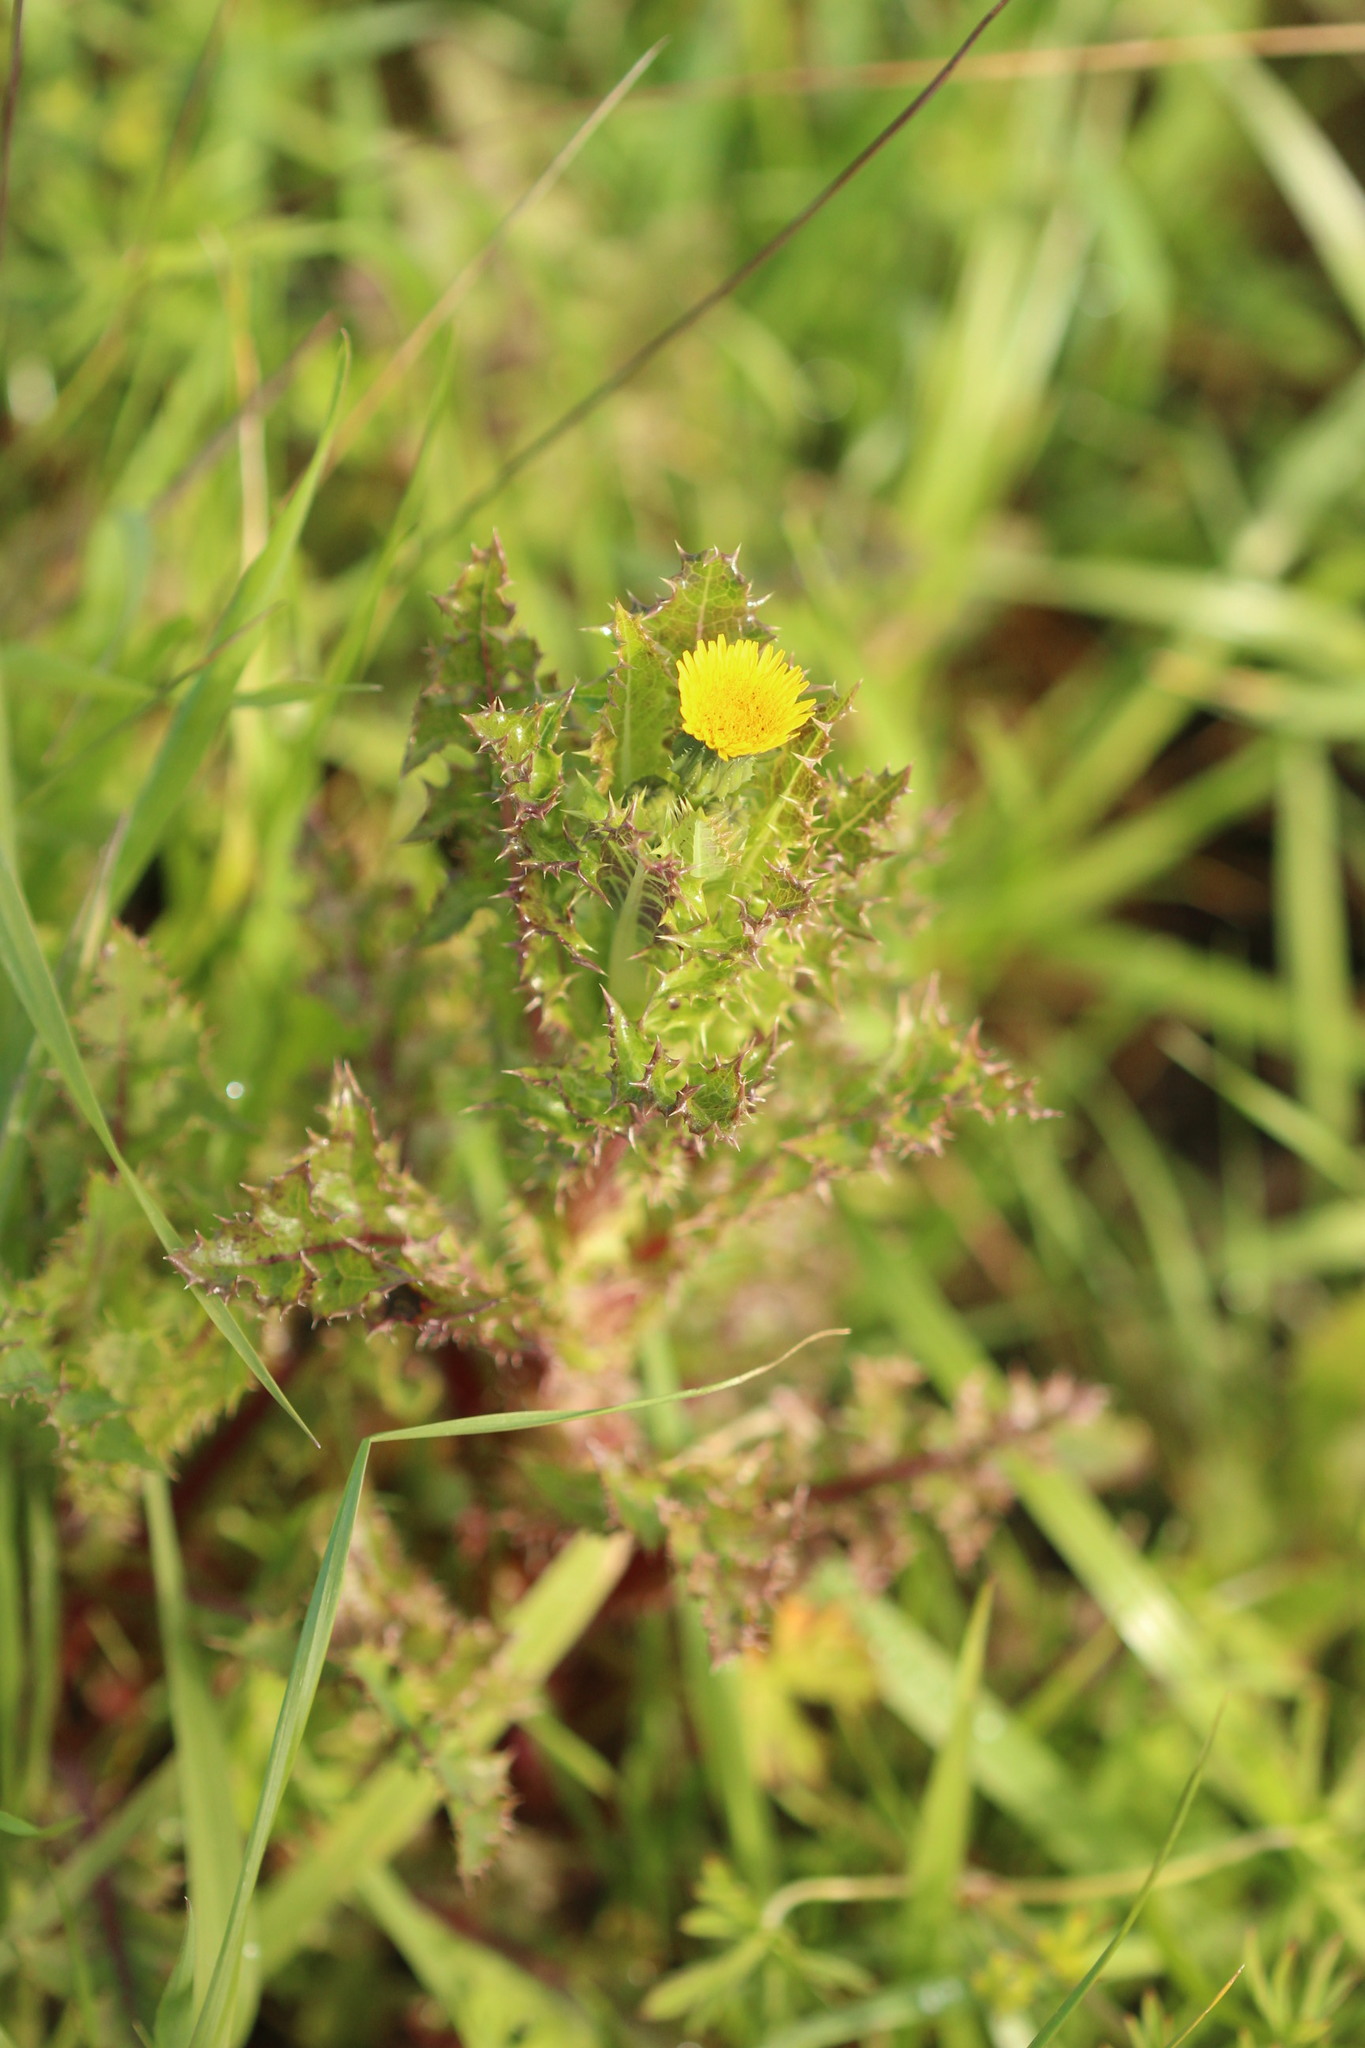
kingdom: Plantae
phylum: Tracheophyta
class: Magnoliopsida
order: Asterales
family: Asteraceae
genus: Sonchus
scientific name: Sonchus asper
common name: Prickly sow-thistle
